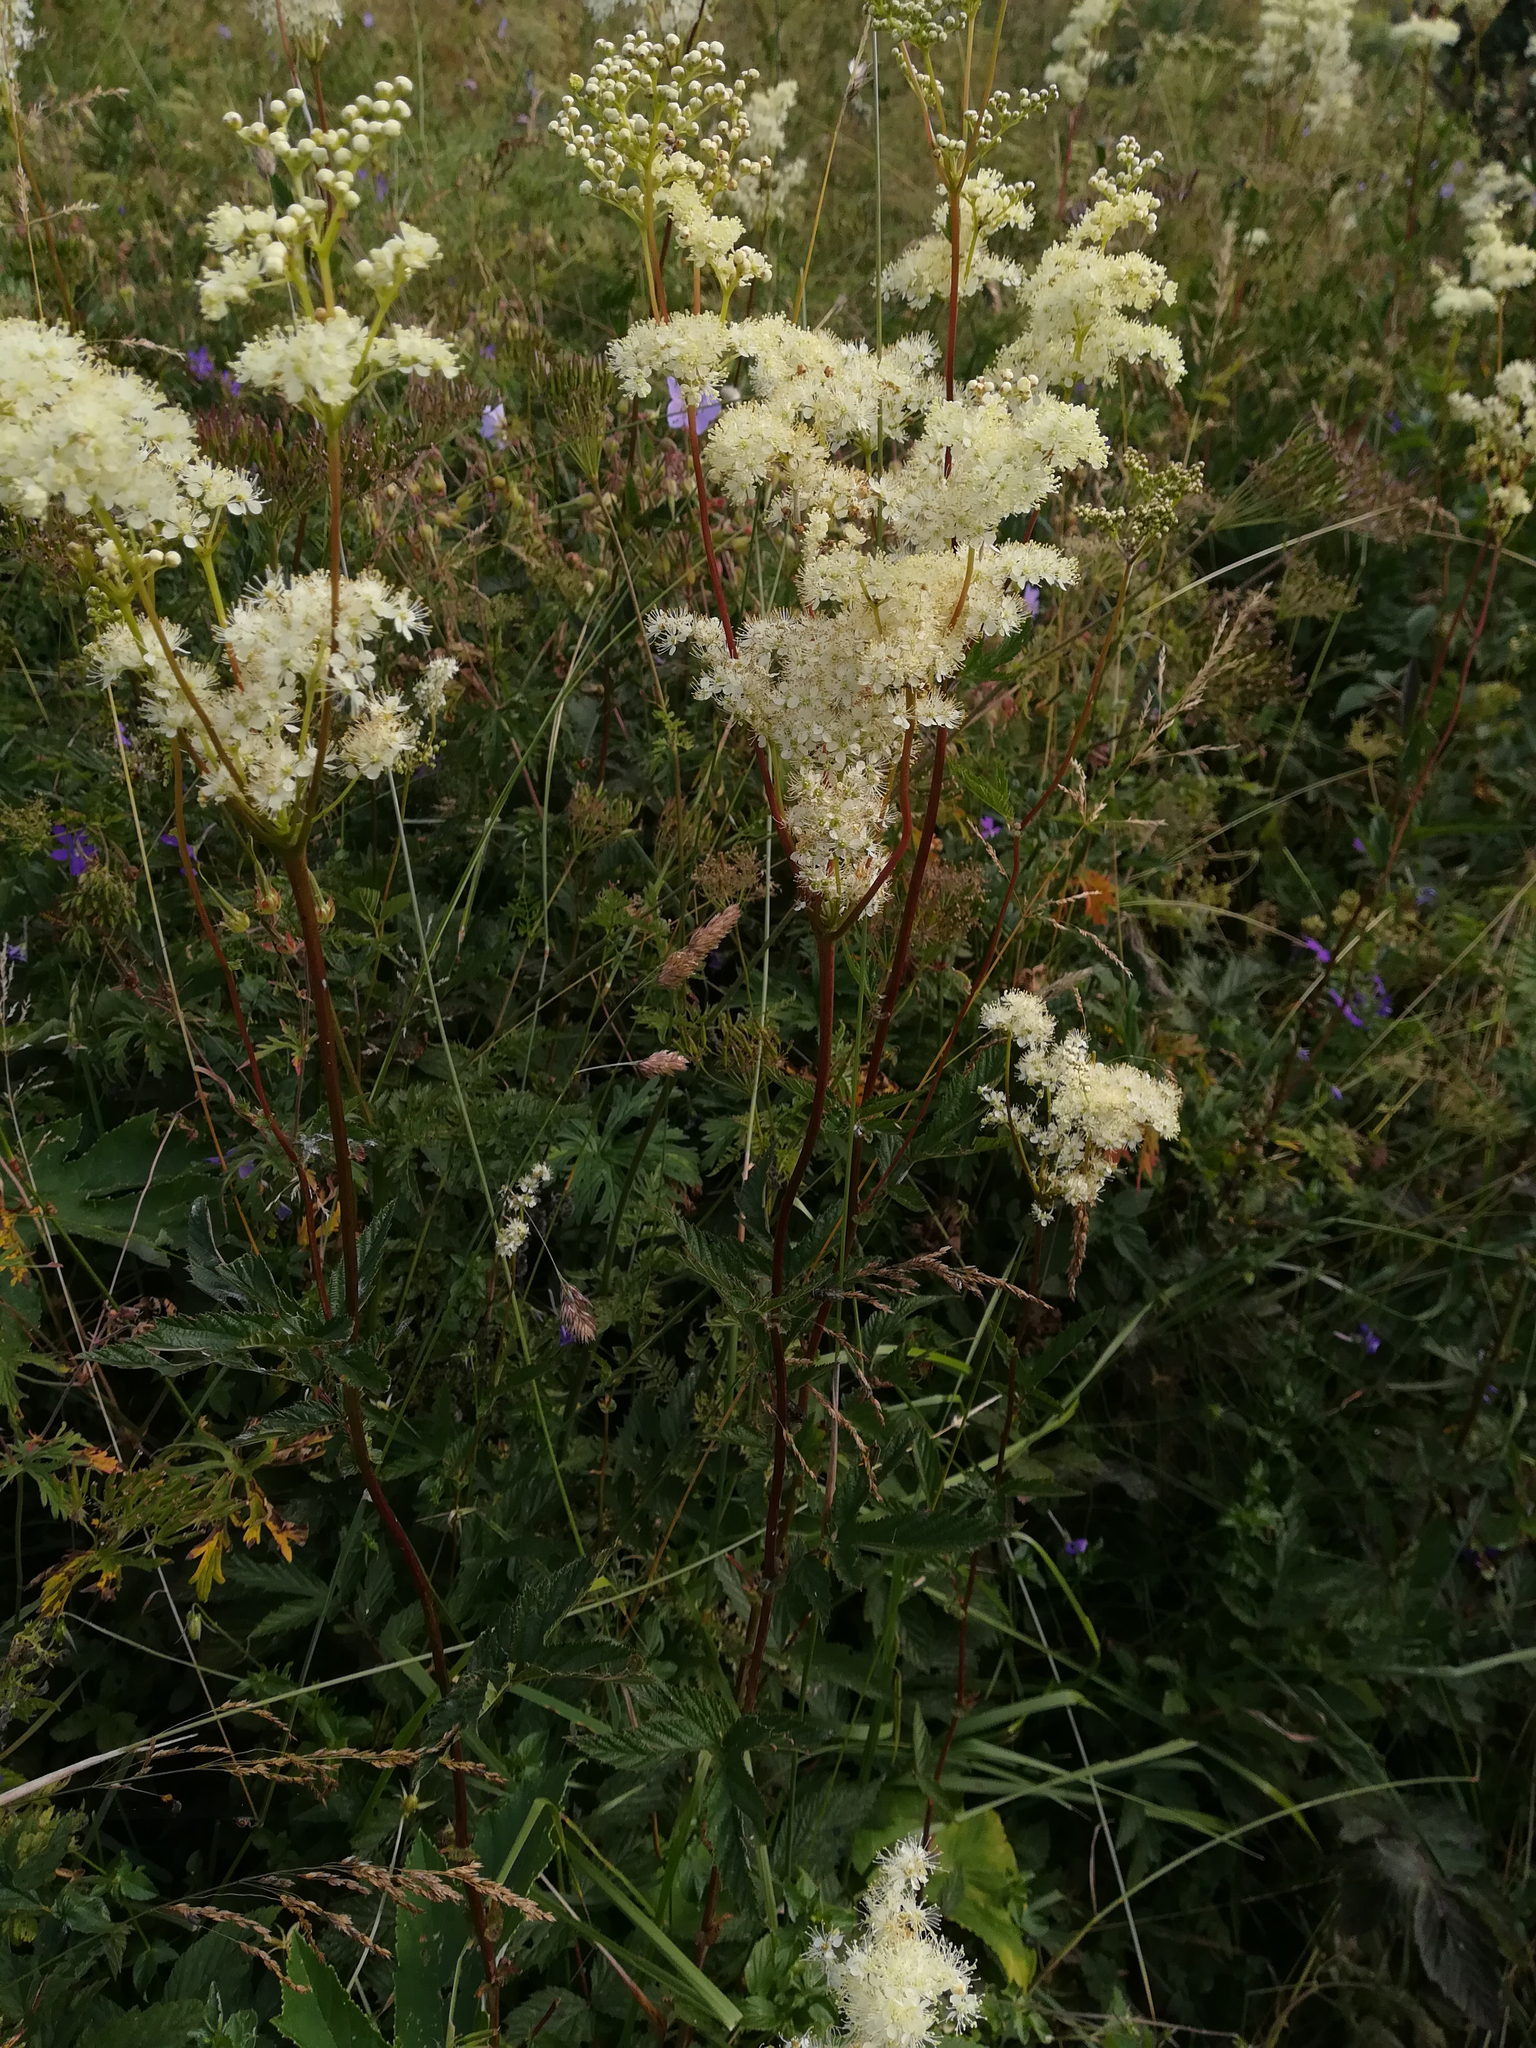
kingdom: Plantae
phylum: Tracheophyta
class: Magnoliopsida
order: Rosales
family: Rosaceae
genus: Filipendula
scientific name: Filipendula ulmaria
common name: Meadowsweet
